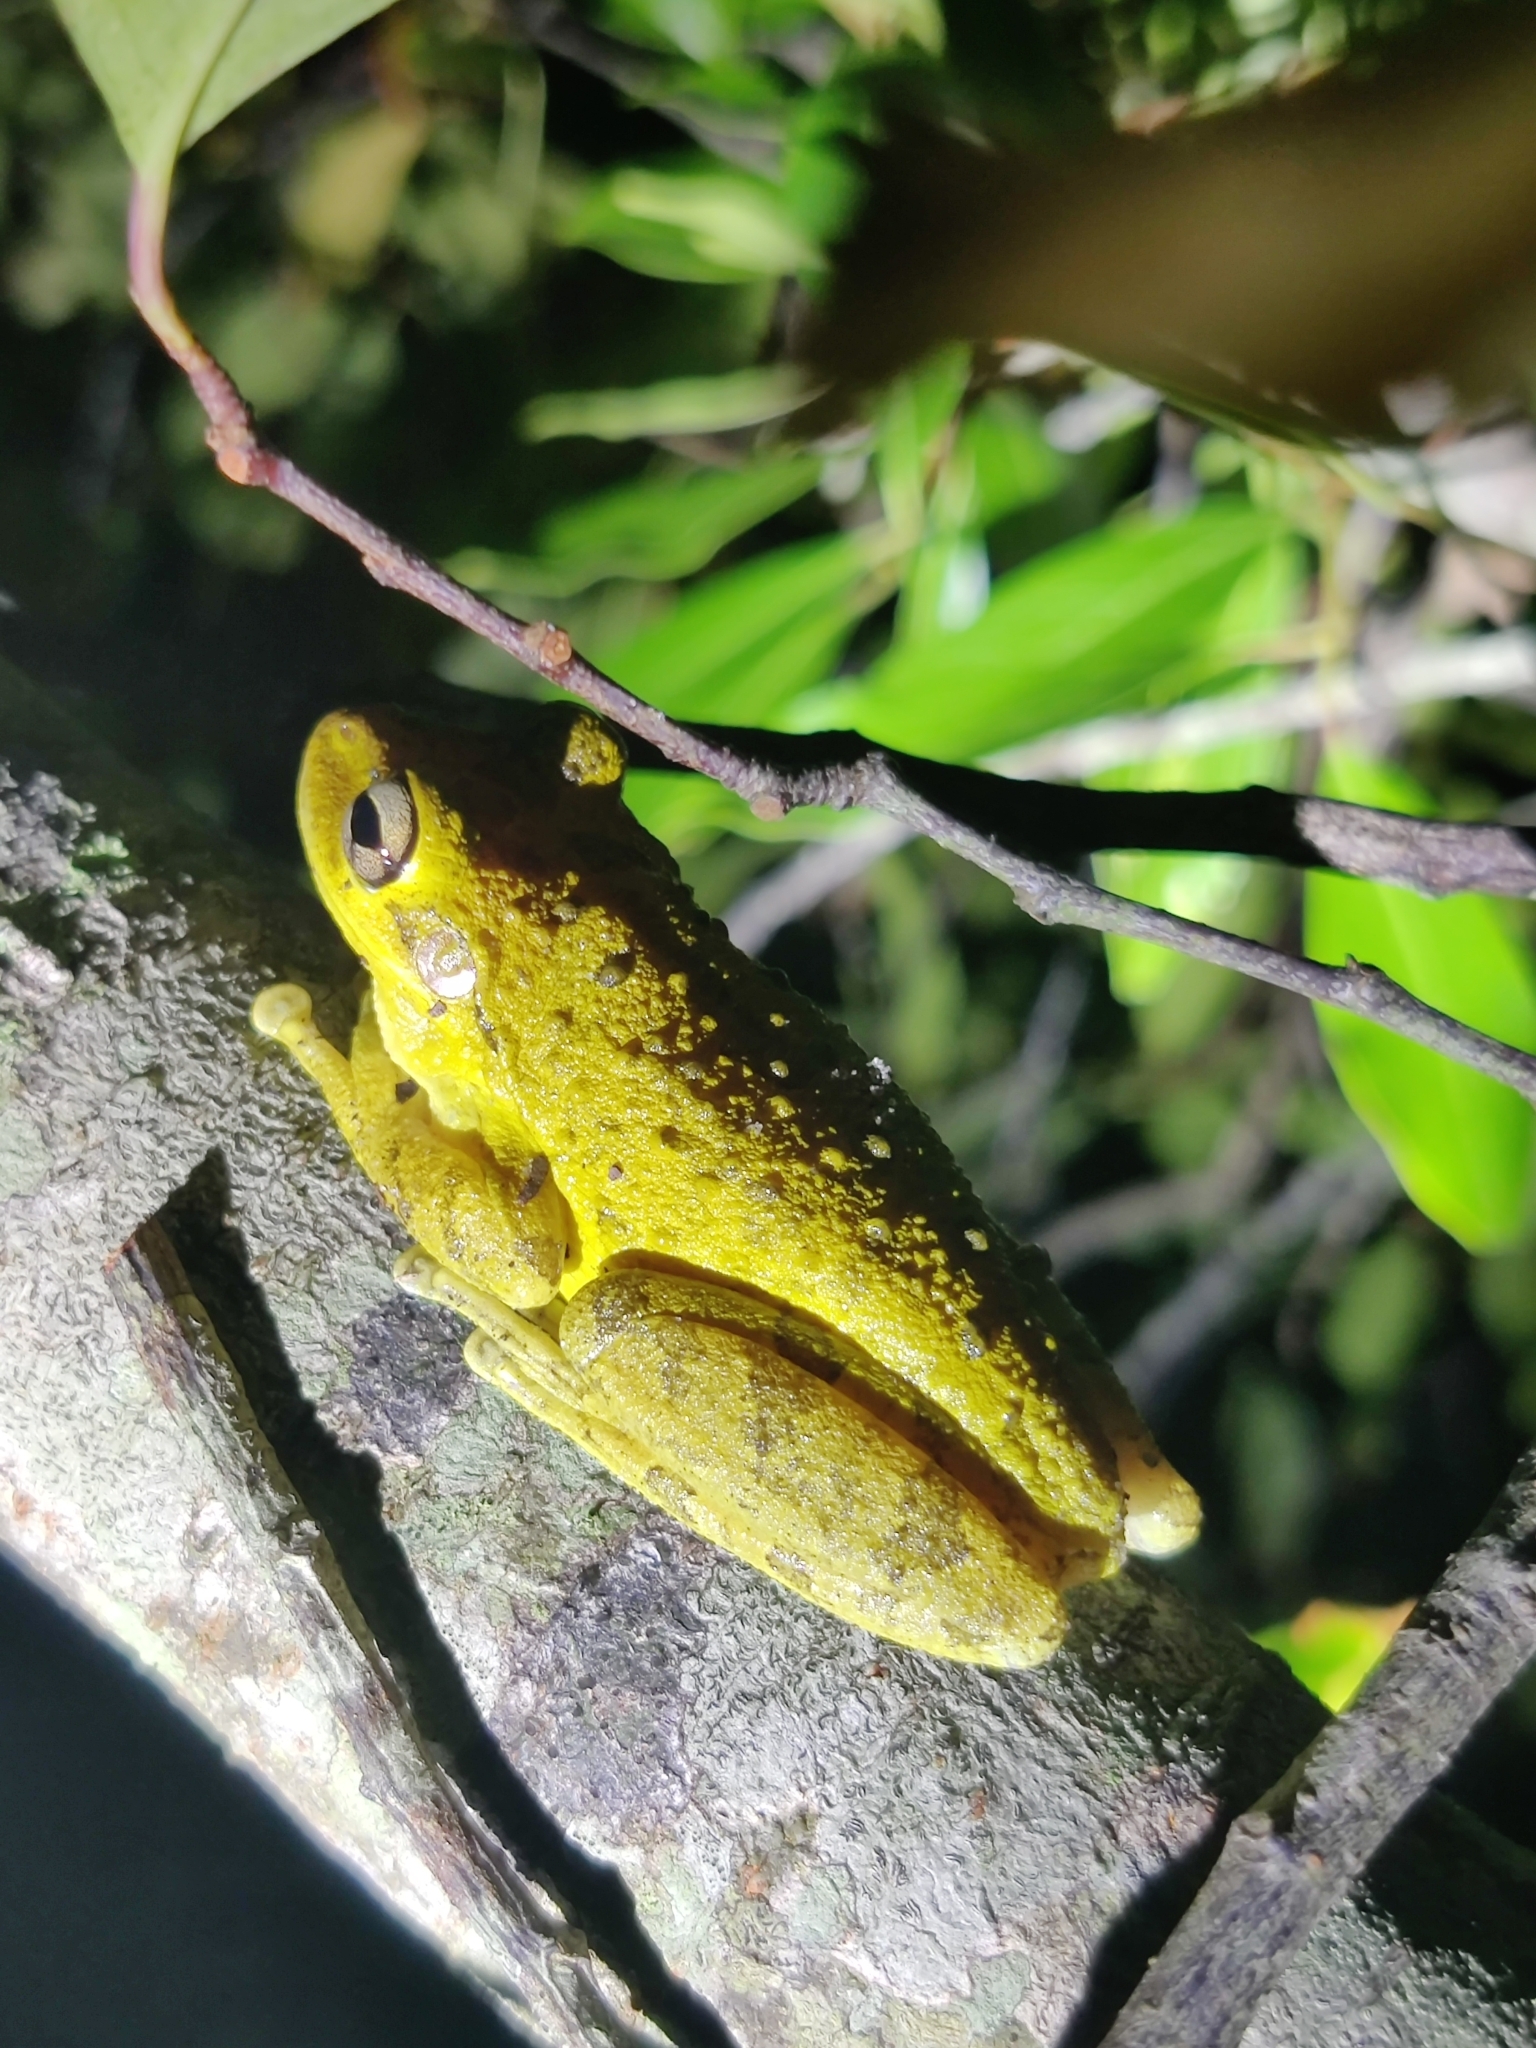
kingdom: Animalia
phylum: Chordata
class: Amphibia
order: Anura
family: Hylidae
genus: Osteopilus
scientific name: Osteopilus septentrionalis
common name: Cuban treefrog
